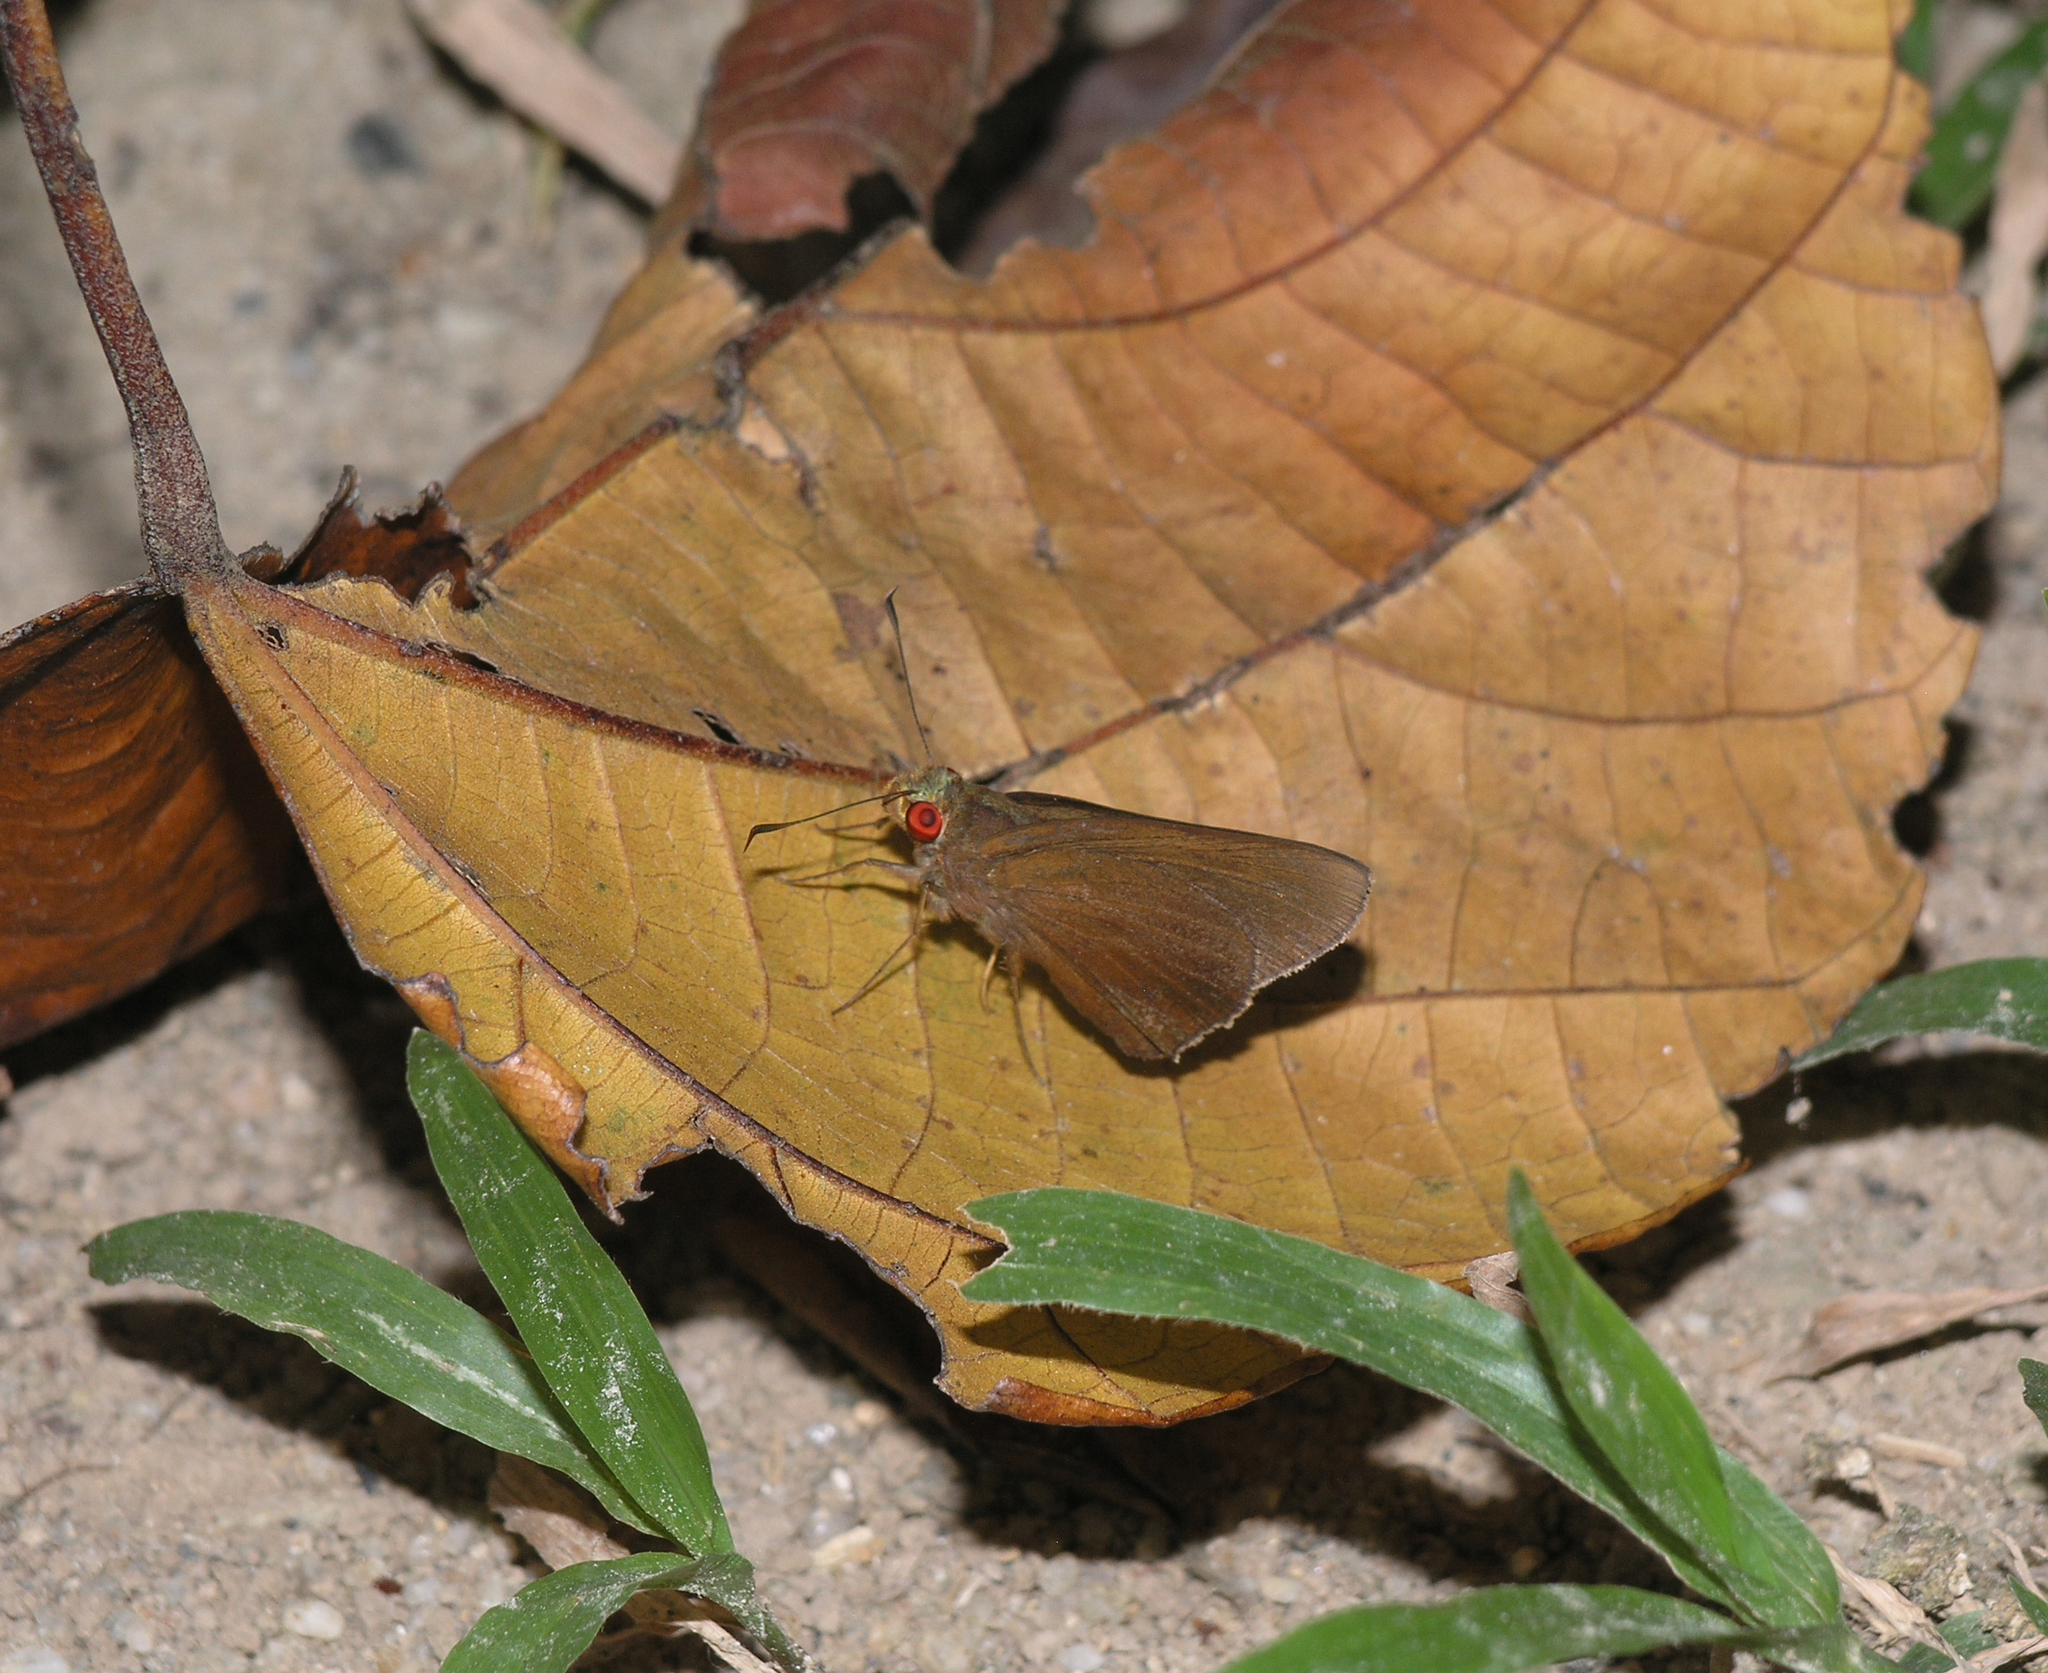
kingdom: Animalia
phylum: Arthropoda
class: Insecta
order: Lepidoptera
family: Hesperiidae
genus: Matapa
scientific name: Matapa aria
